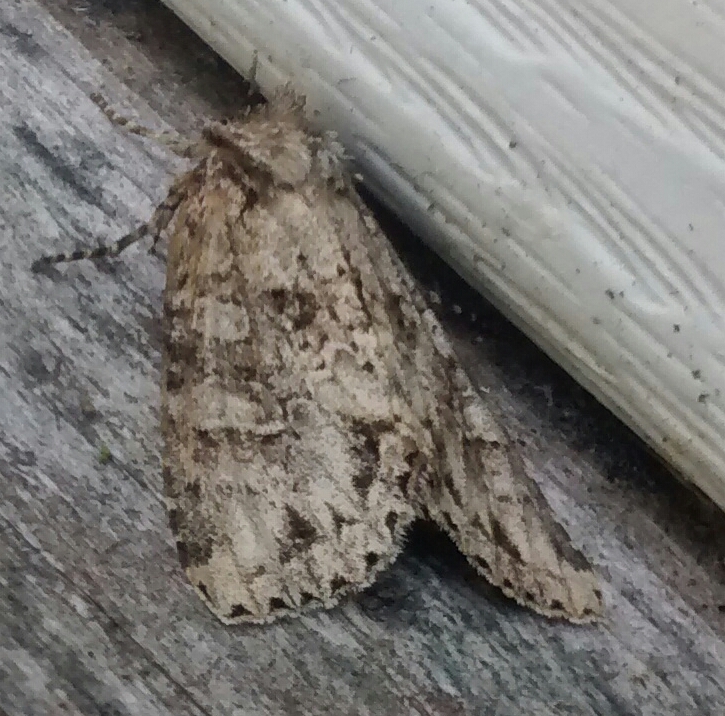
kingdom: Animalia
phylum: Arthropoda
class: Insecta
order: Lepidoptera
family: Noctuidae
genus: Polia
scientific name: Polia imbrifera
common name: Cloudy arches moth
